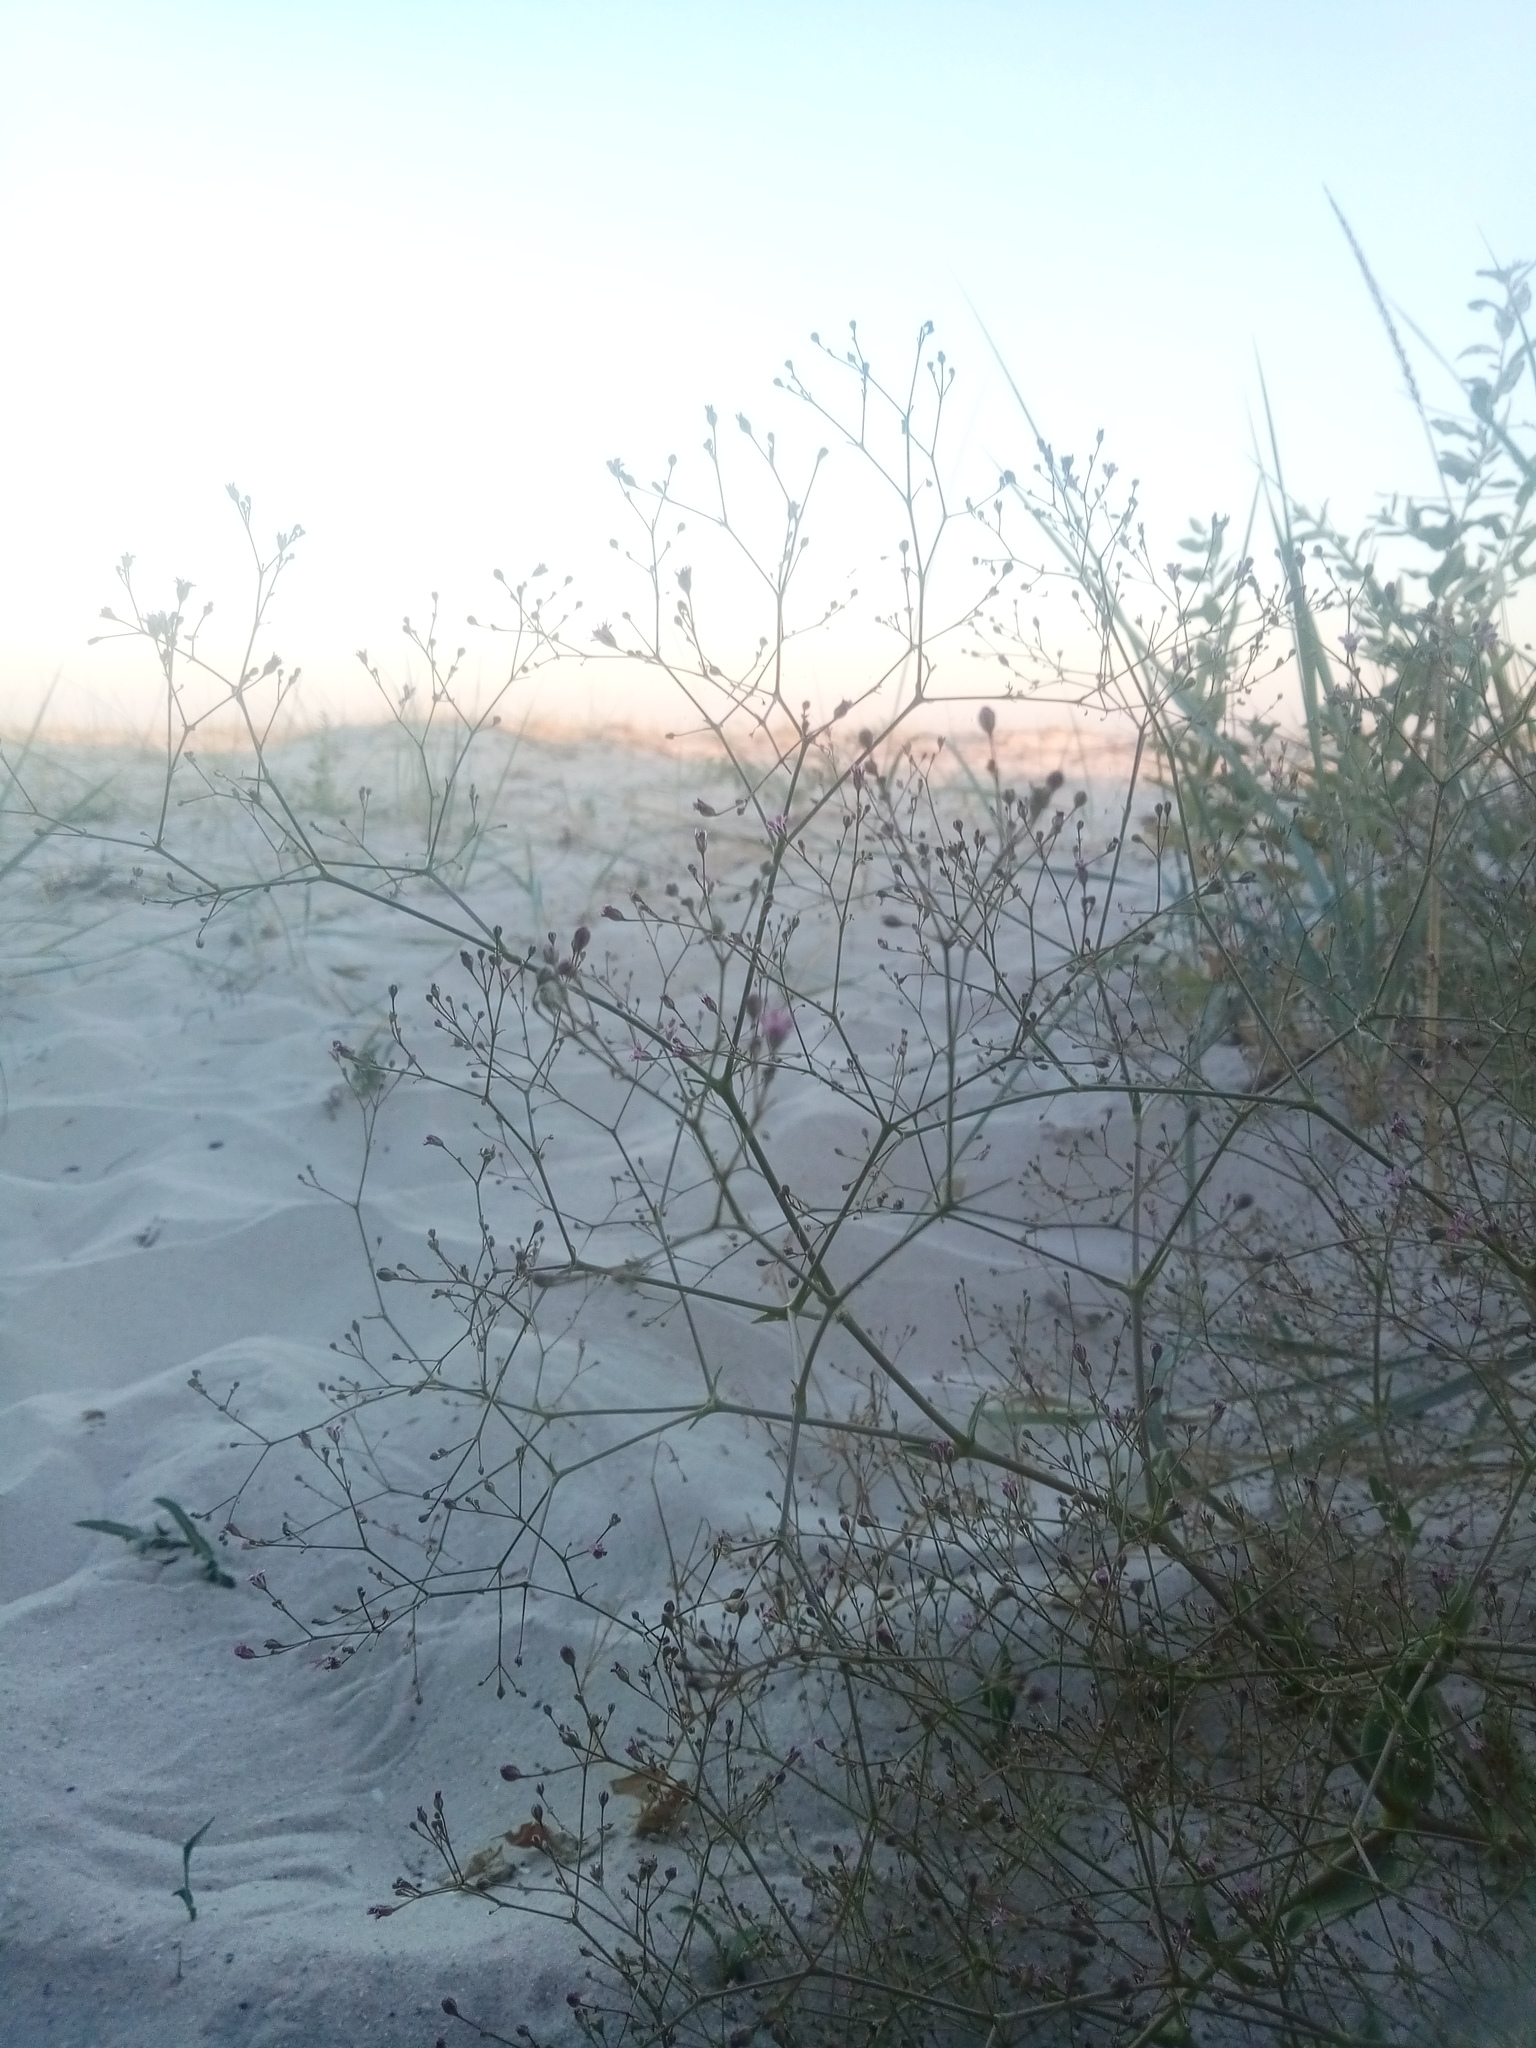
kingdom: Plantae
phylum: Tracheophyta
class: Magnoliopsida
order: Caryophyllales
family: Caryophyllaceae
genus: Gypsophila
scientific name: Gypsophila perfoliata
